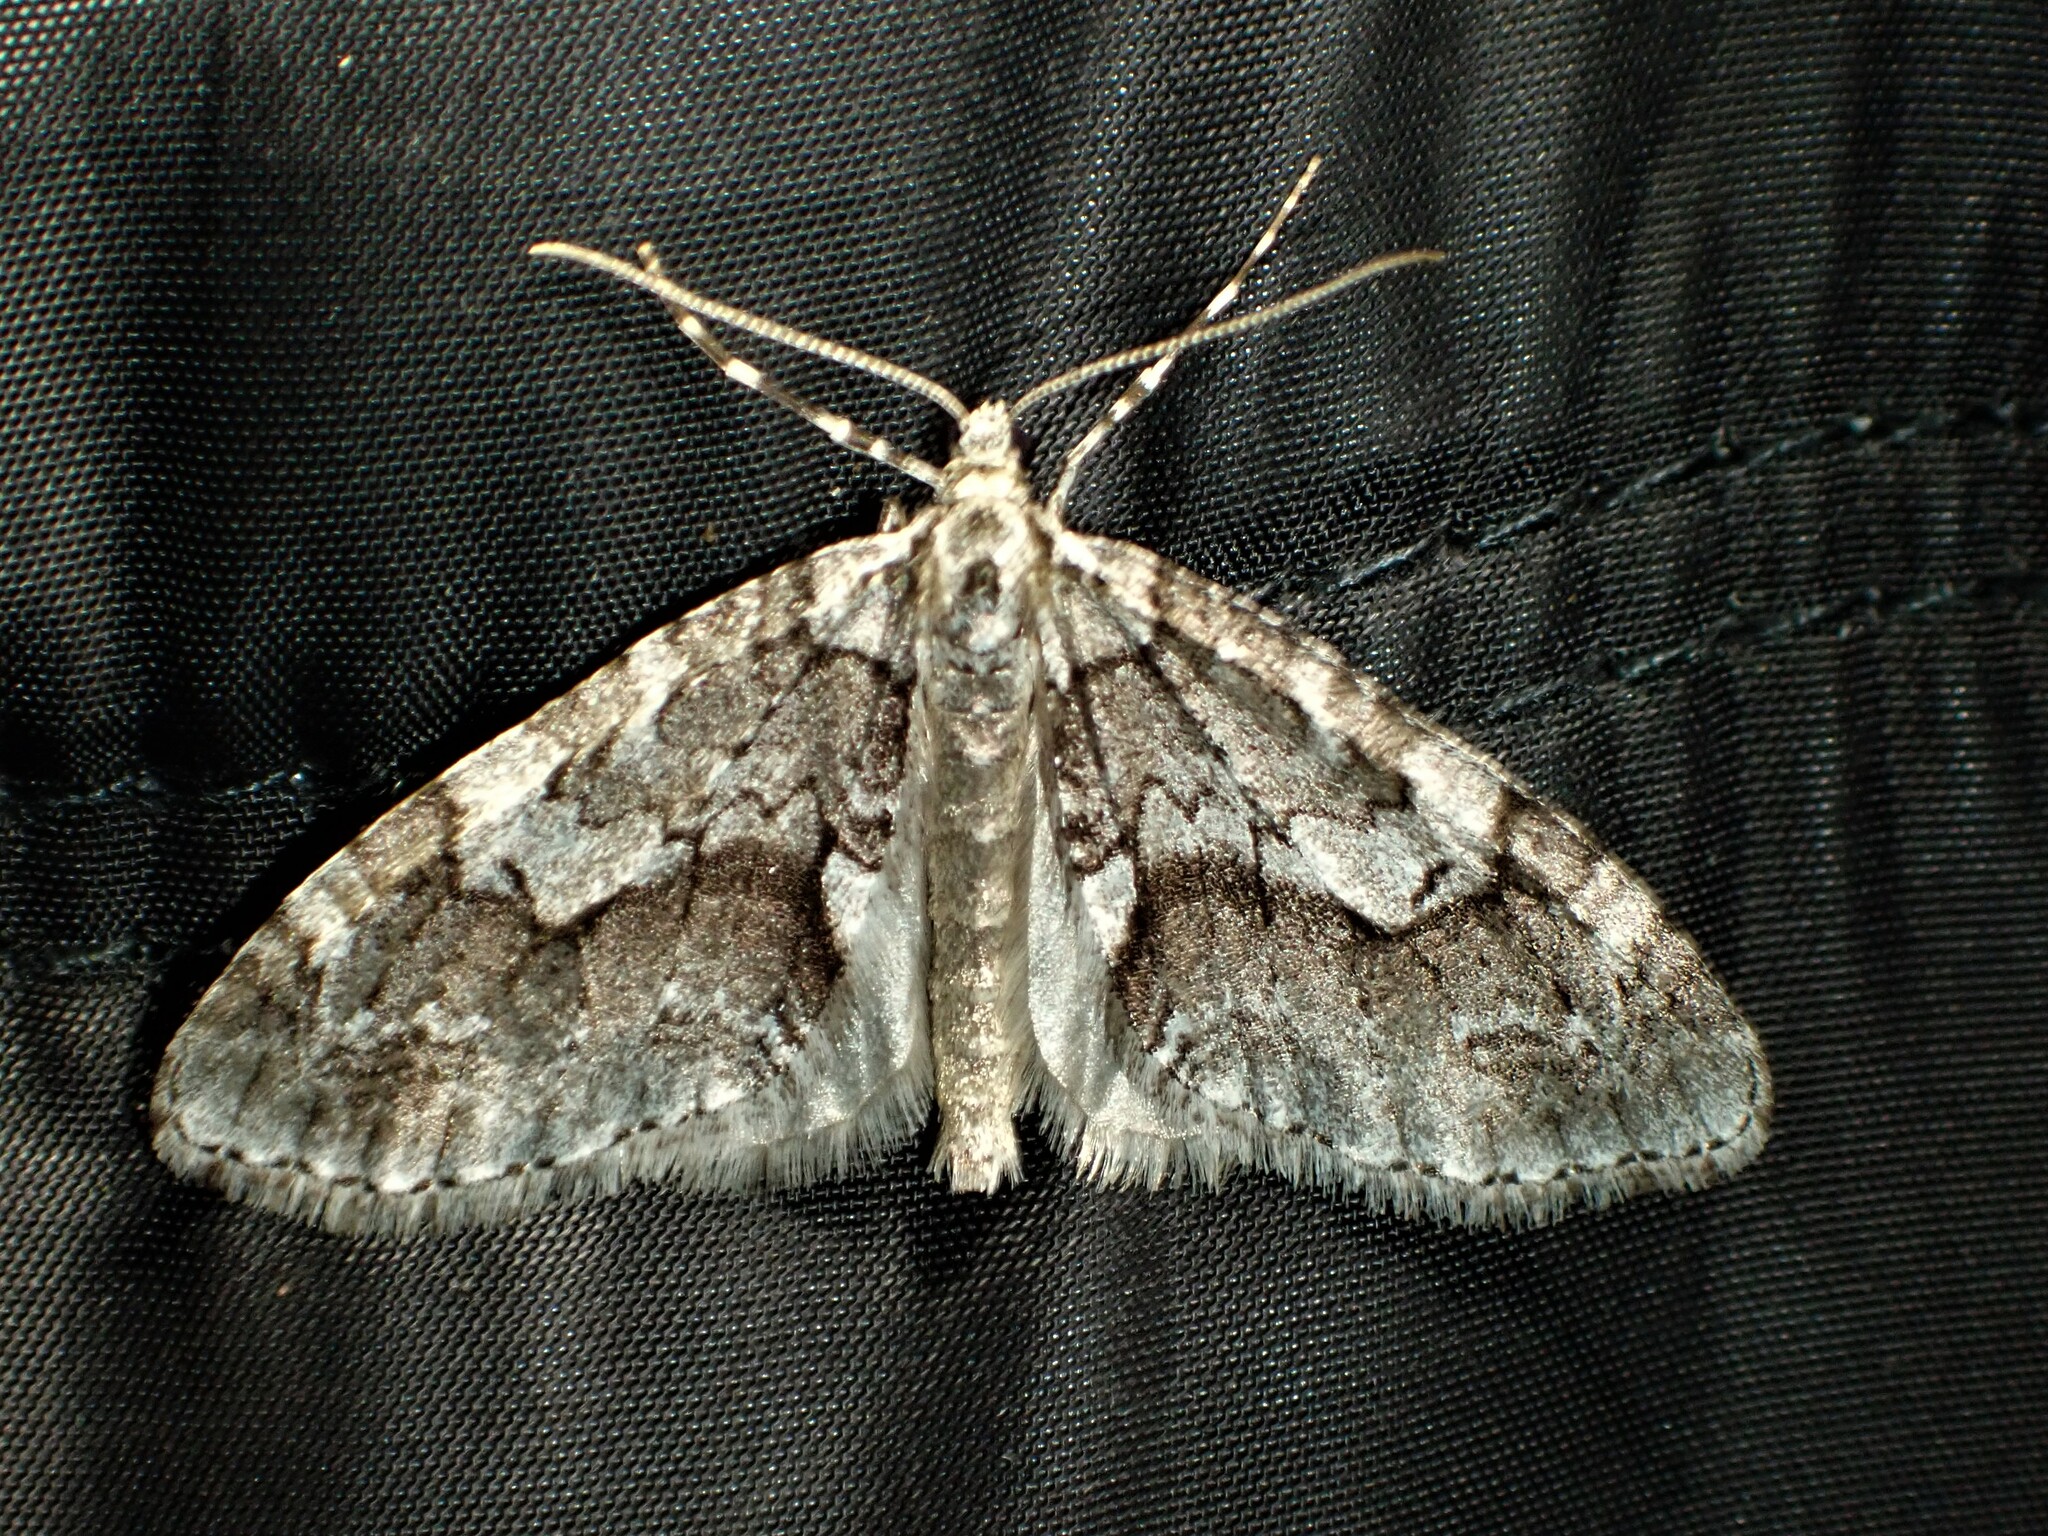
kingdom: Animalia
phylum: Arthropoda
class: Insecta
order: Lepidoptera
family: Geometridae
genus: Cladara
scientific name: Cladara limitaria
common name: Mottled gray carpet
